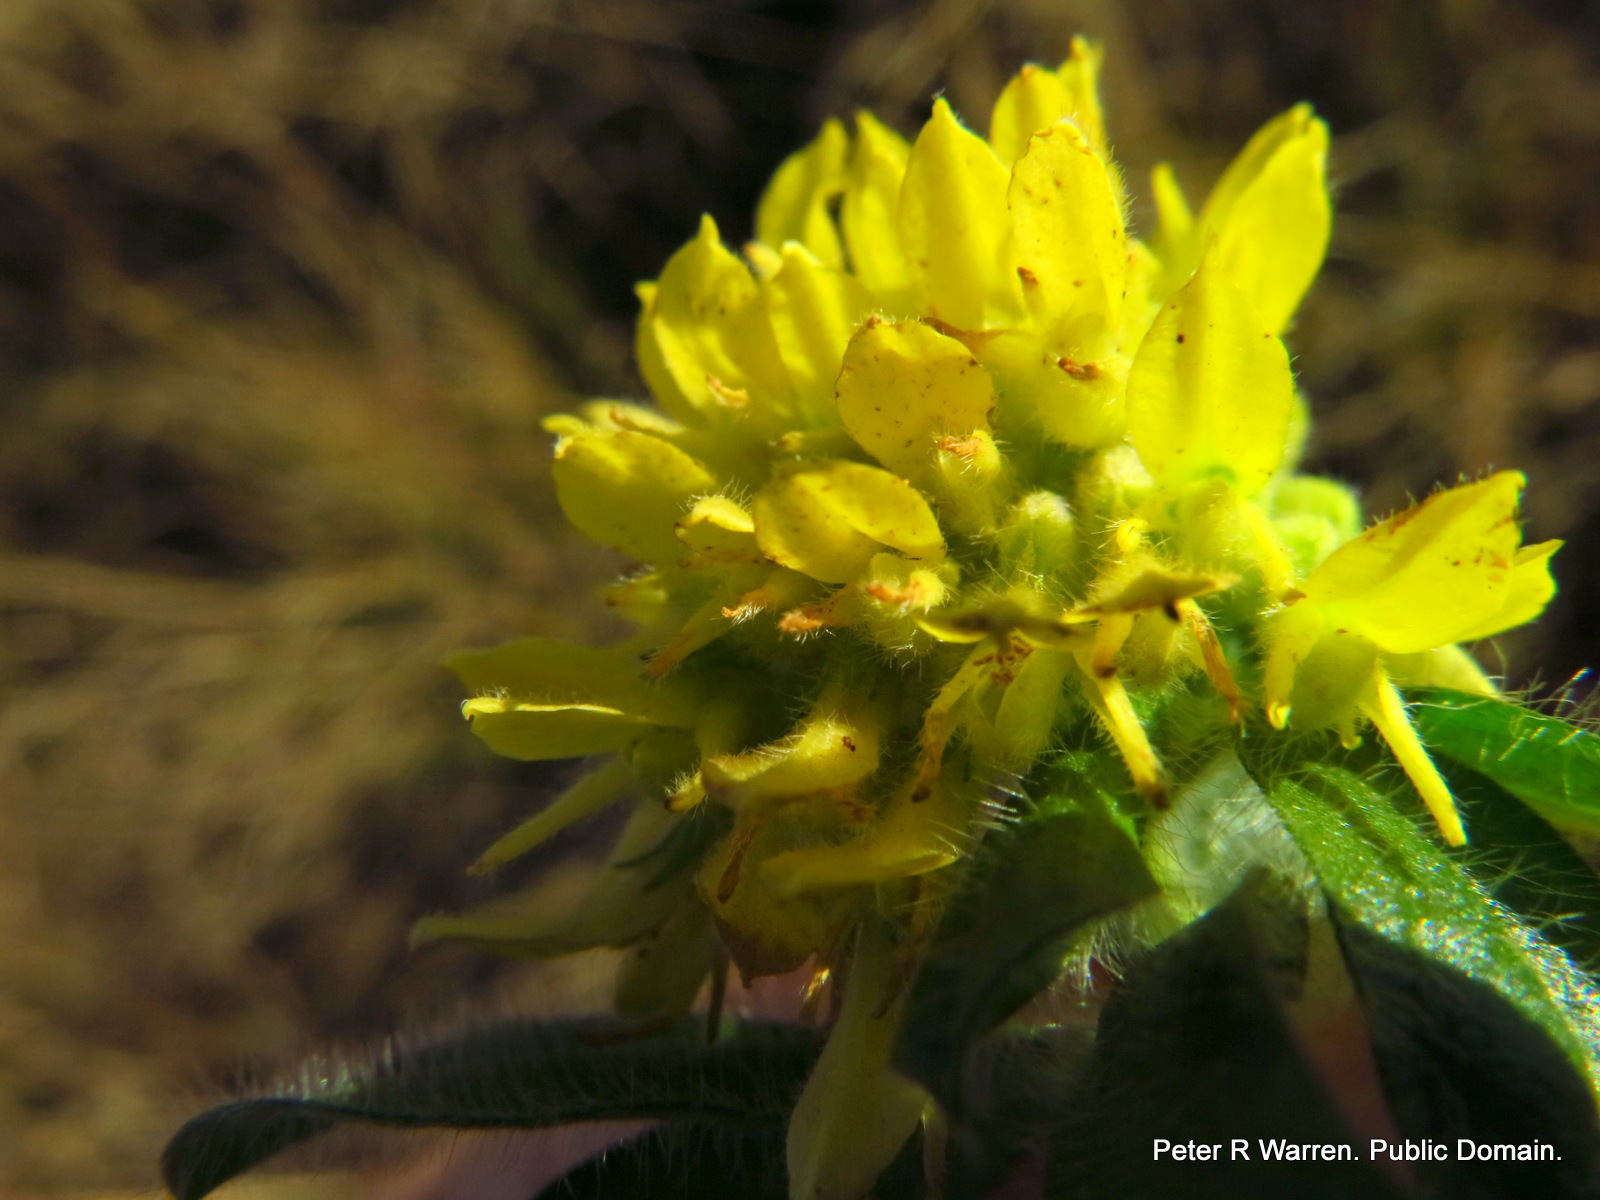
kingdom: Plantae
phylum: Tracheophyta
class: Magnoliopsida
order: Fabales
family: Fabaceae
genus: Leobordea
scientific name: Leobordea corymbosa
